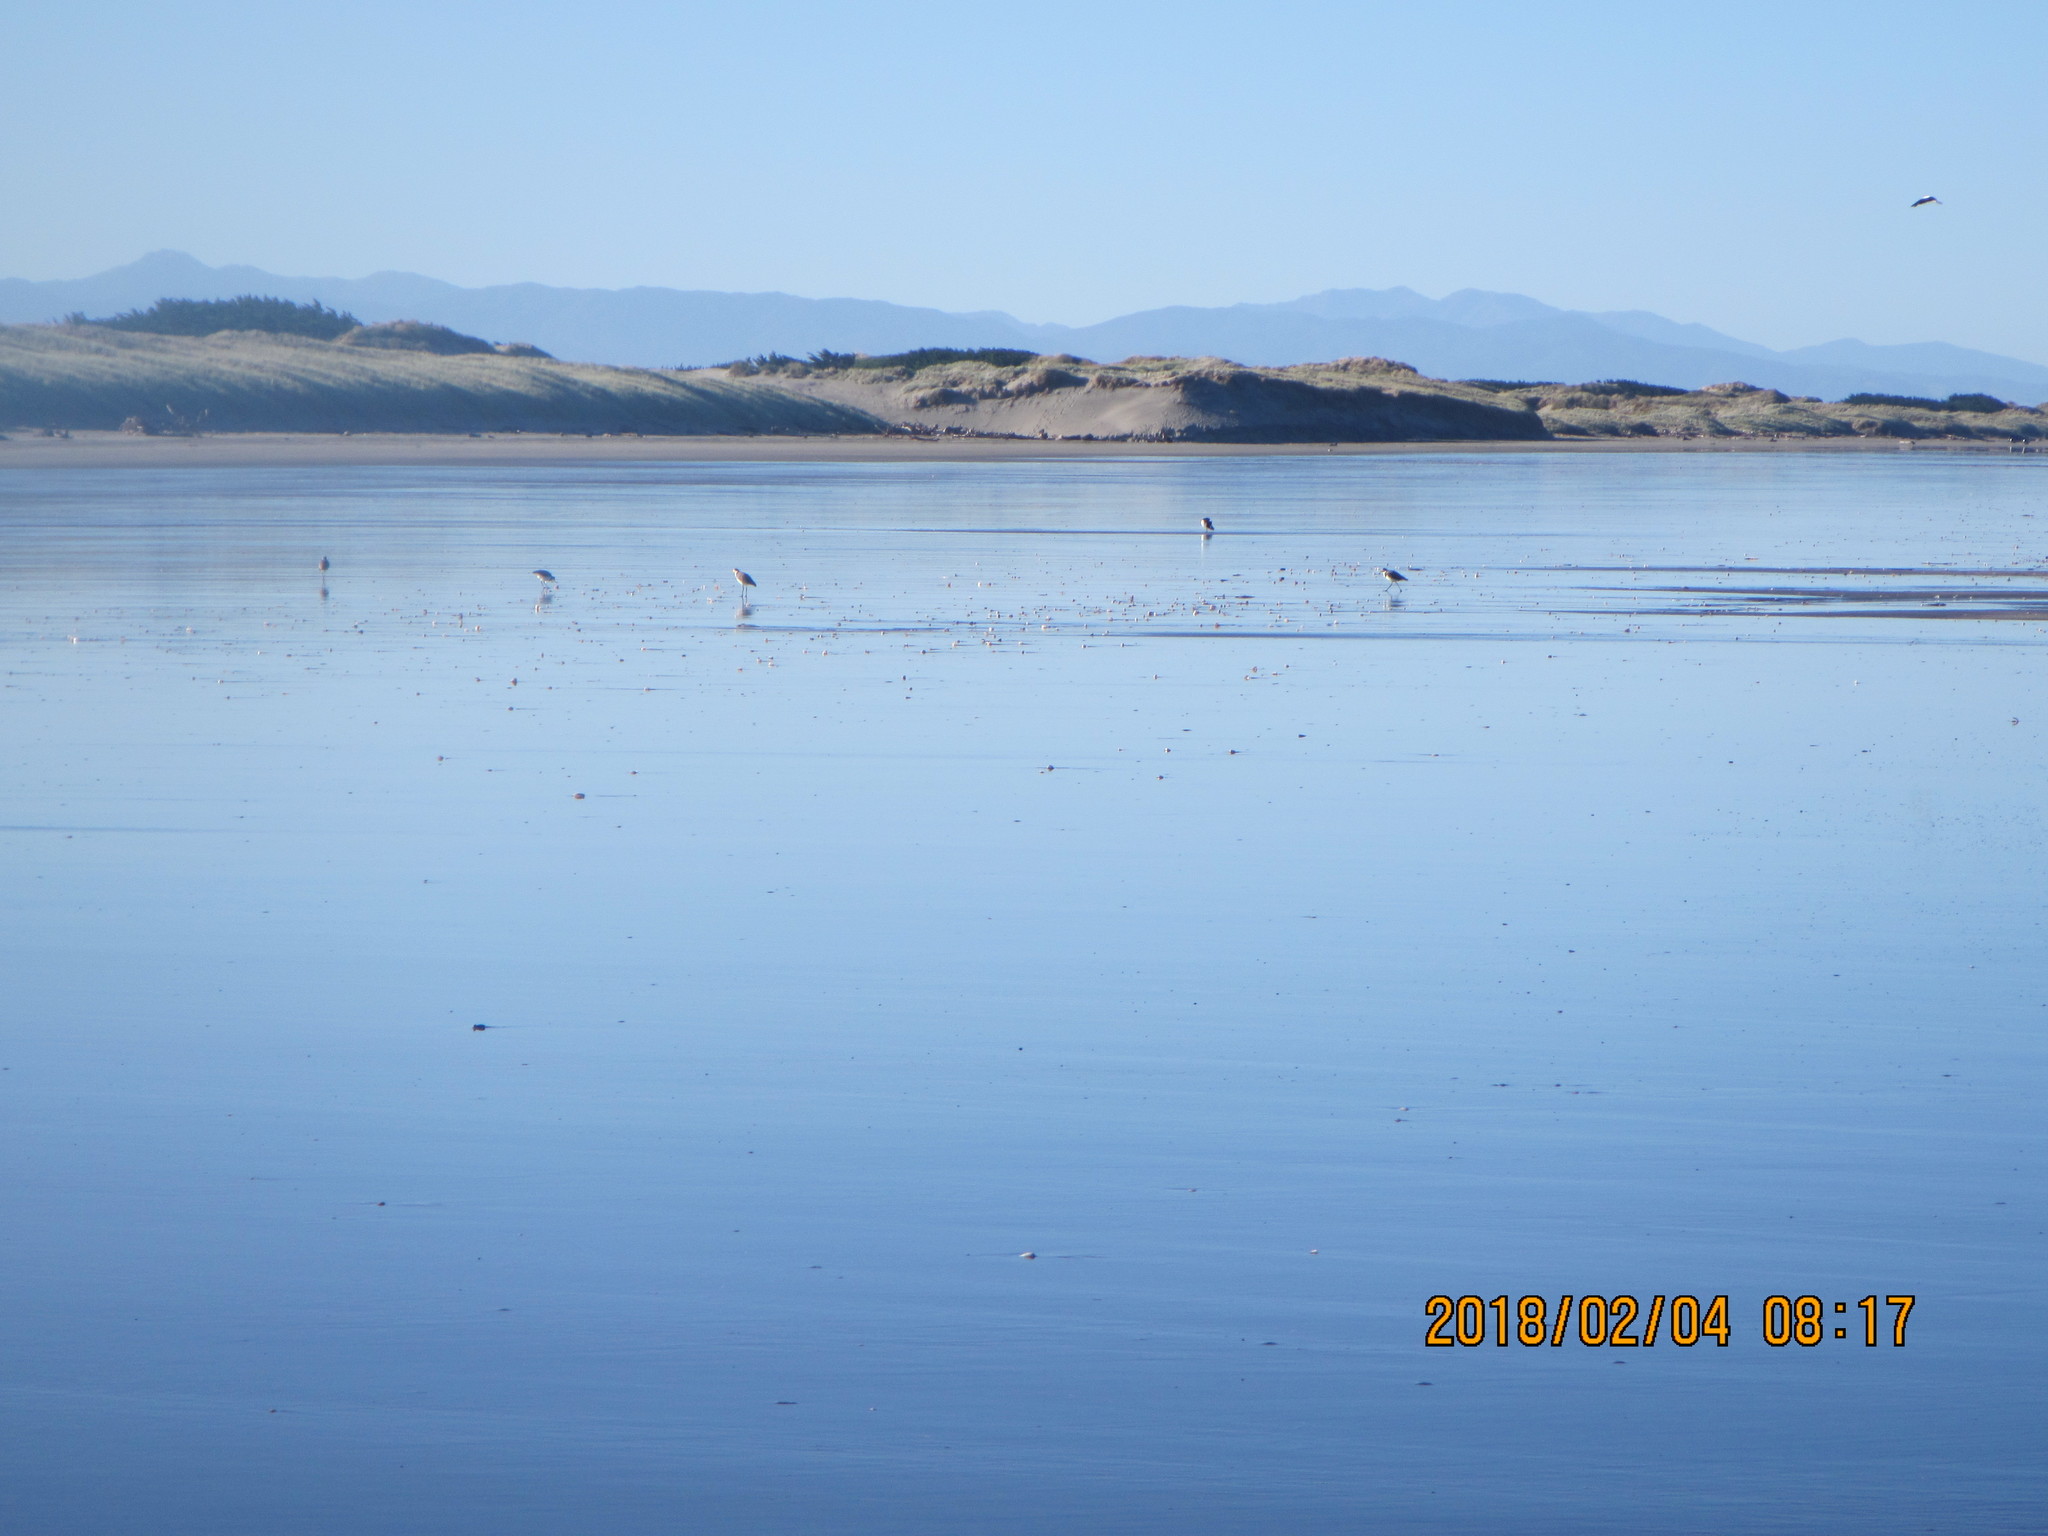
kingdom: Animalia
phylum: Chordata
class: Aves
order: Charadriiformes
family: Charadriidae
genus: Vanellus
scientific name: Vanellus miles
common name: Masked lapwing
